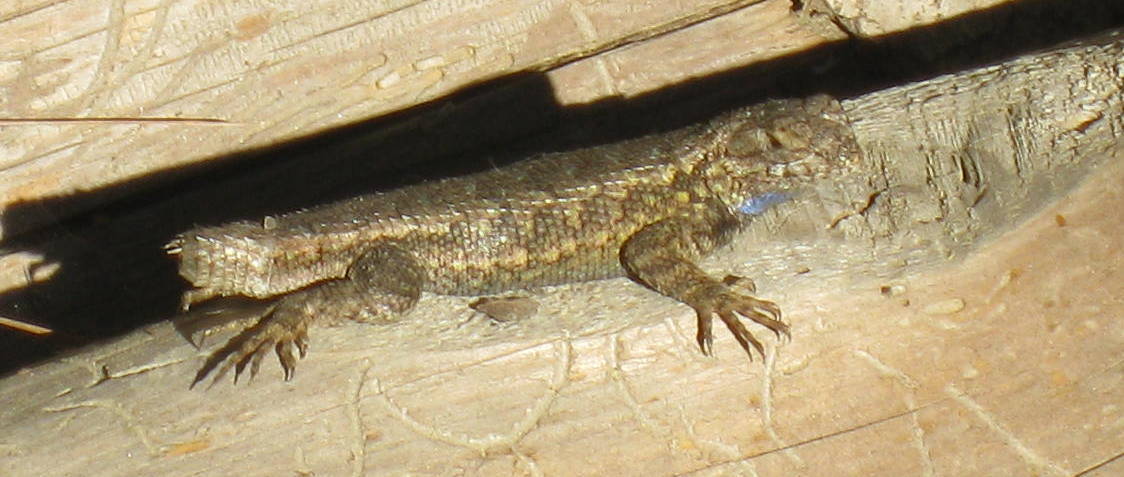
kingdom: Animalia
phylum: Chordata
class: Squamata
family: Phrynosomatidae
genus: Sceloporus
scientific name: Sceloporus occidentalis
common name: Western fence lizard
